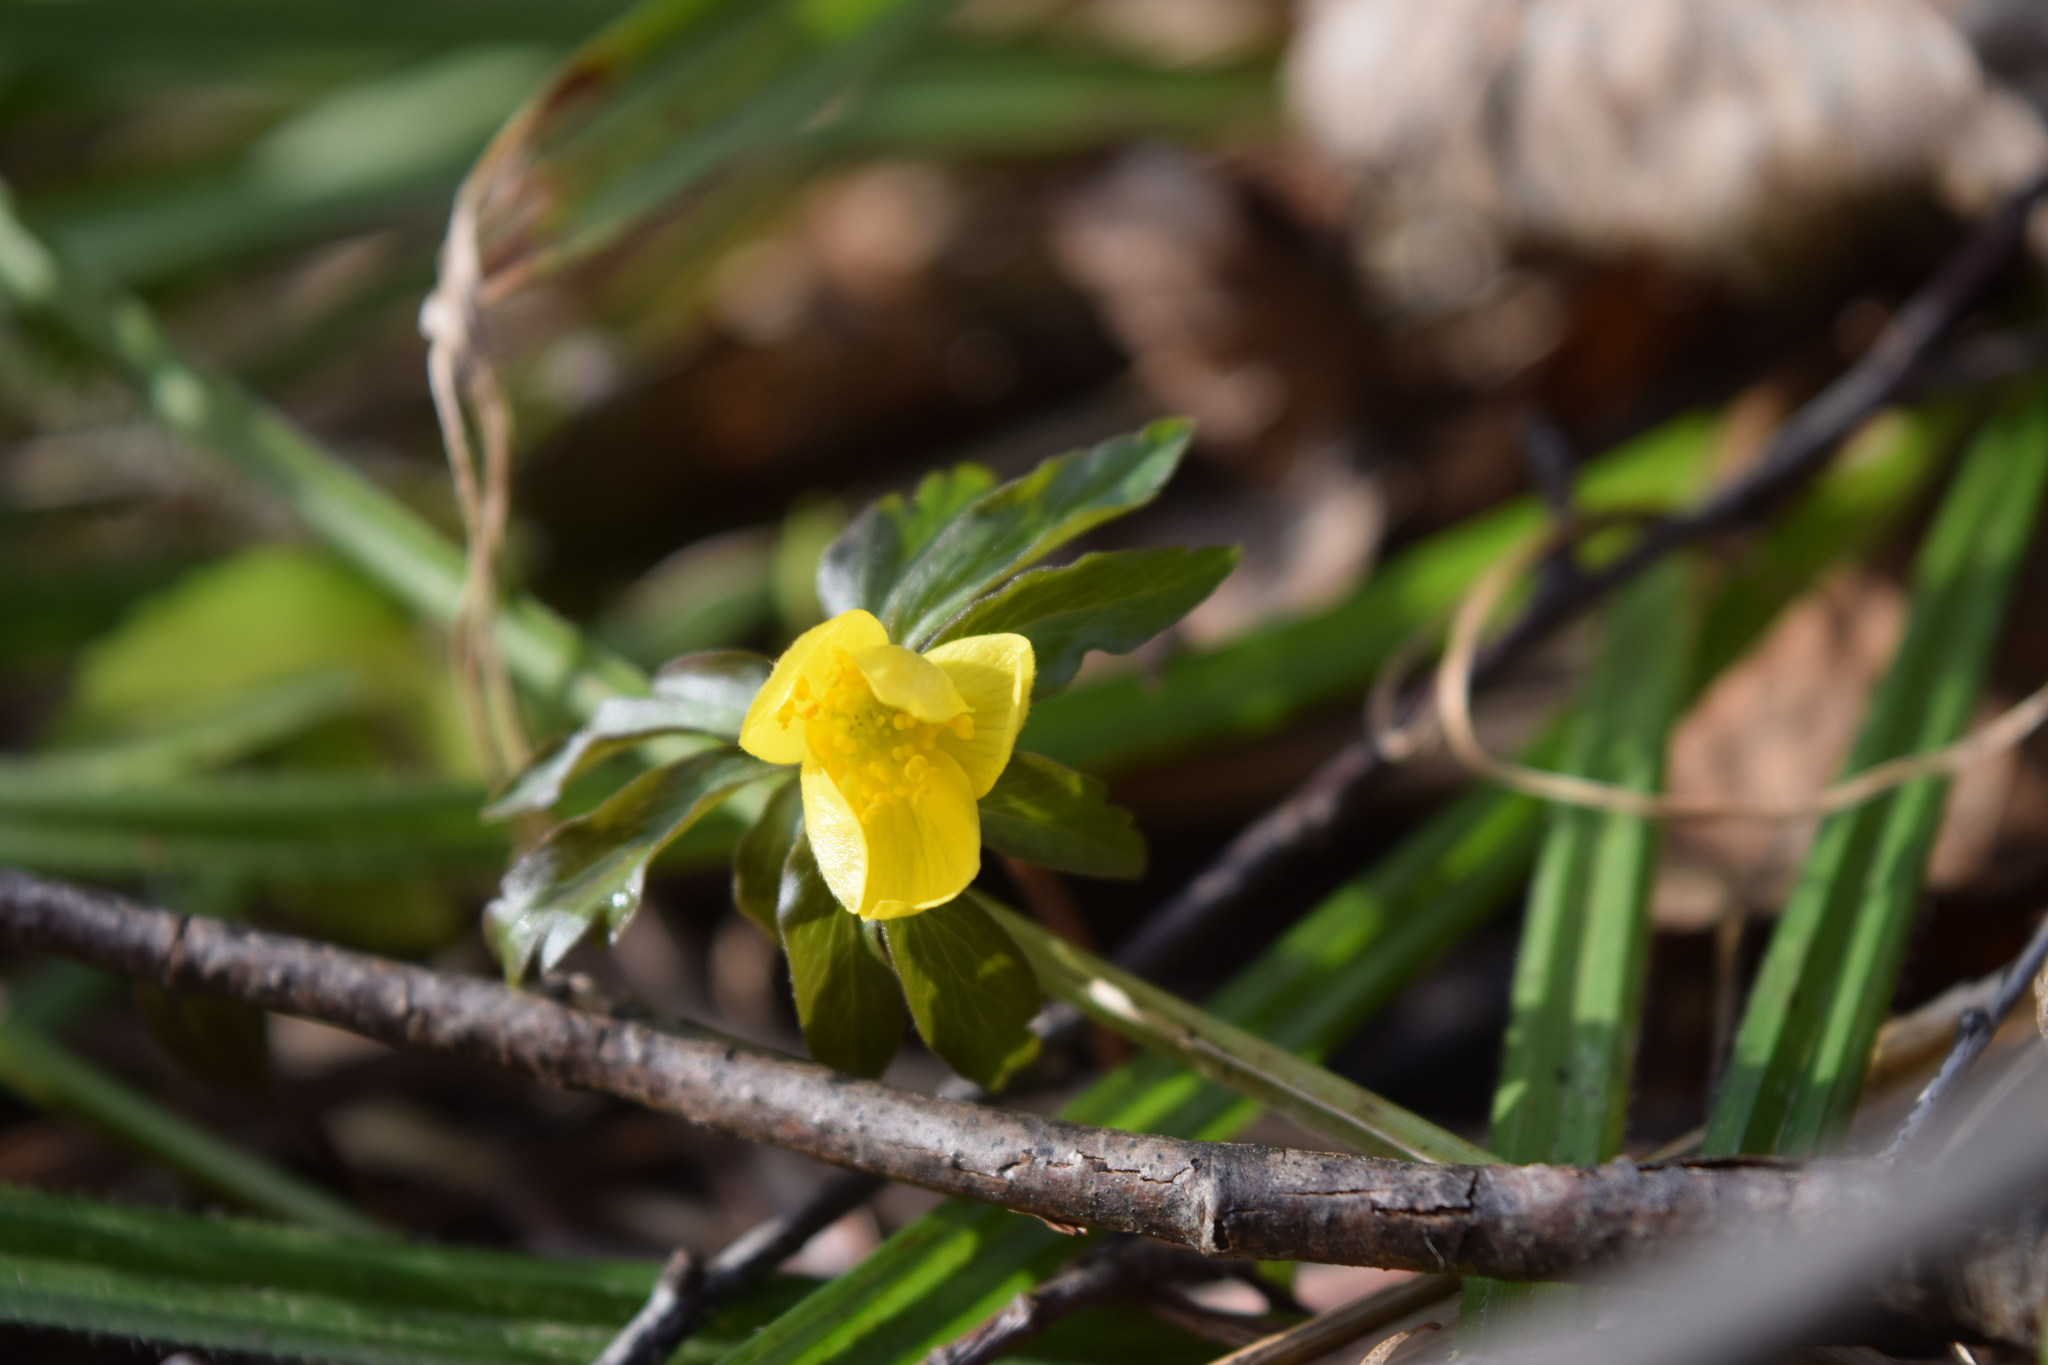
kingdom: Plantae
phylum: Tracheophyta
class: Magnoliopsida
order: Ranunculales
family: Ranunculaceae
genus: Anemone
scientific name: Anemone ranunculoides
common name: Yellow anemone
